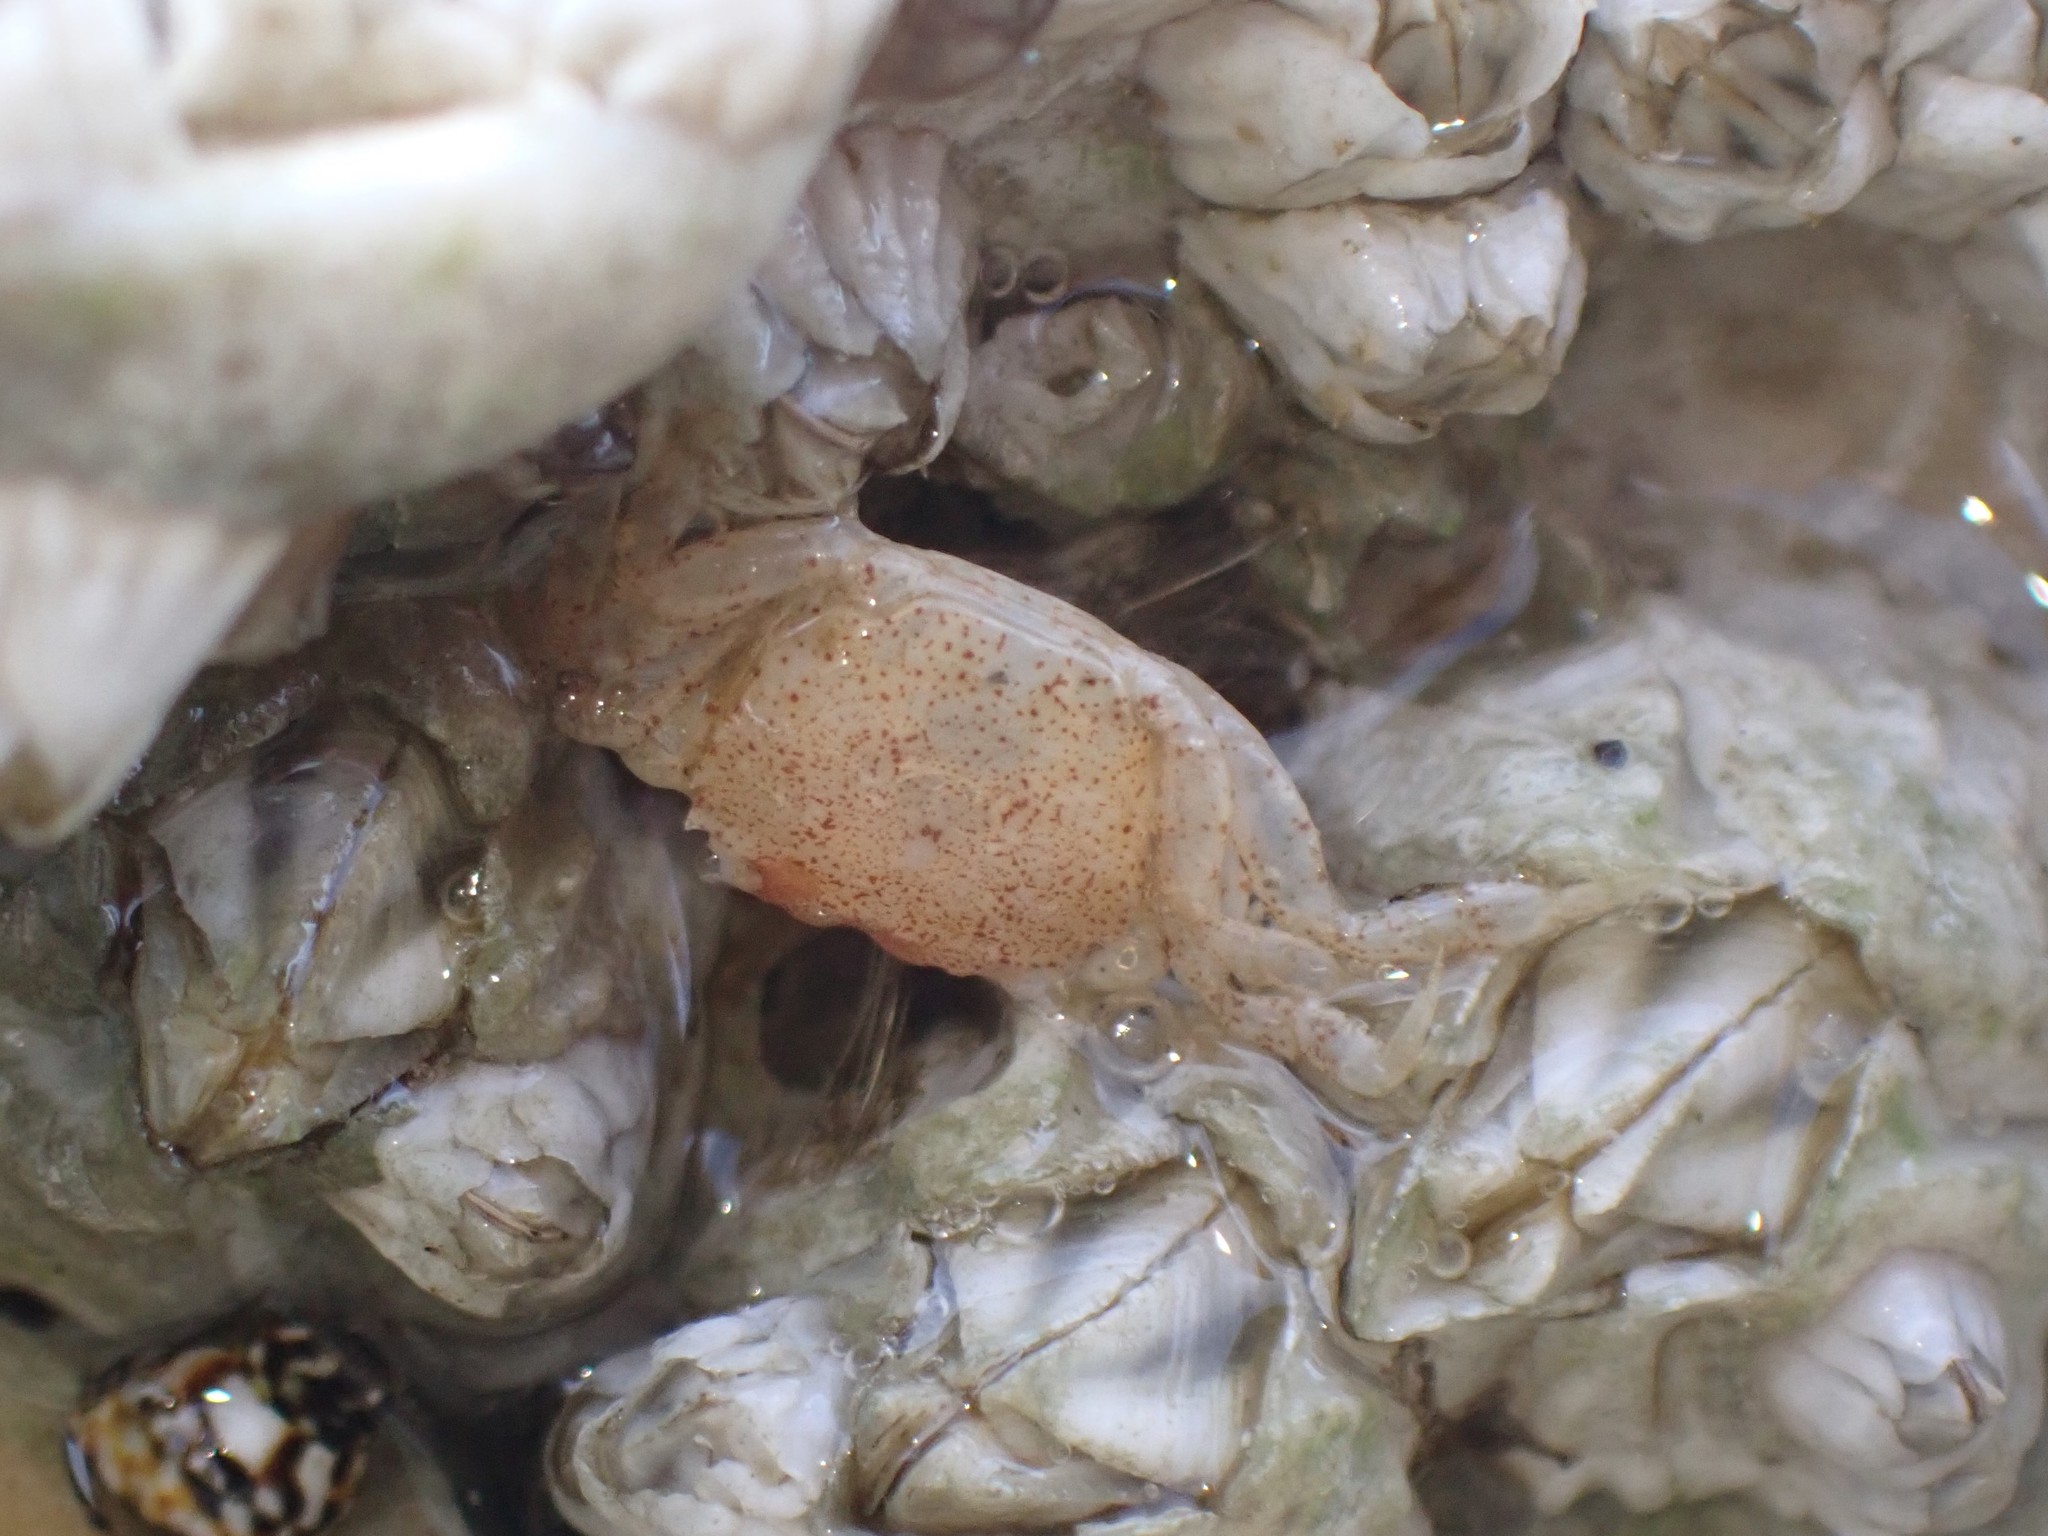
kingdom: Animalia
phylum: Arthropoda
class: Malacostraca
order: Decapoda
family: Varunidae
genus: Hemigrapsus
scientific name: Hemigrapsus oregonensis
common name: Yellow shore crab
